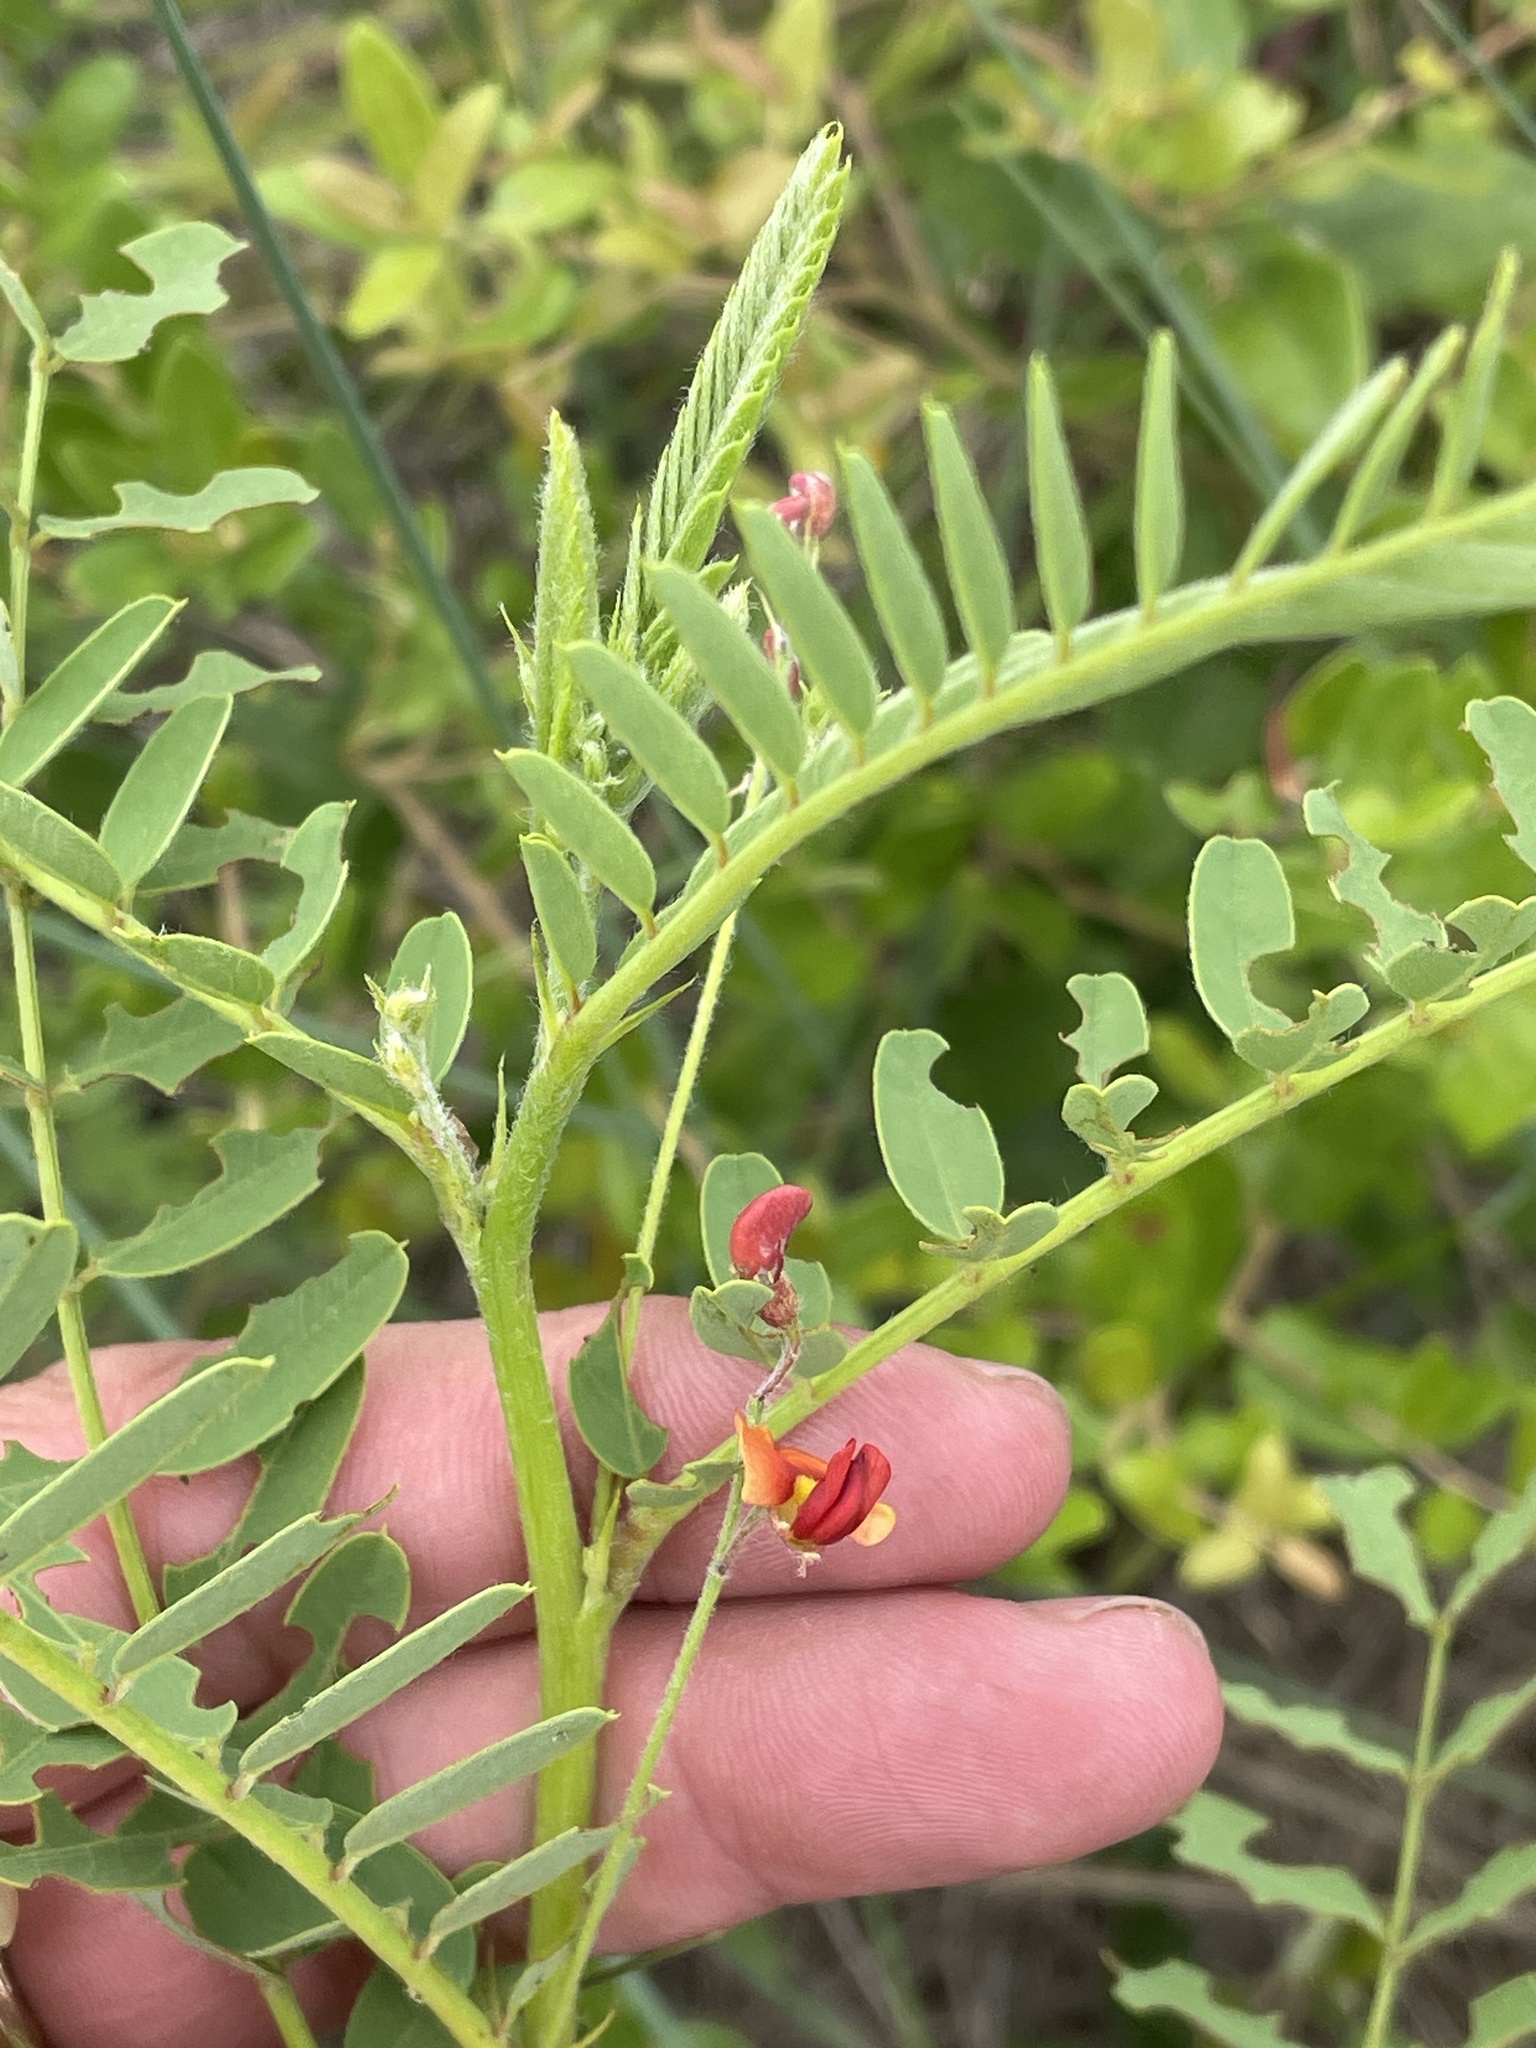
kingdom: Plantae
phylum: Tracheophyta
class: Magnoliopsida
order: Fabales
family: Fabaceae
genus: Sesbania
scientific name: Sesbania vesicaria
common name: Bagpod
